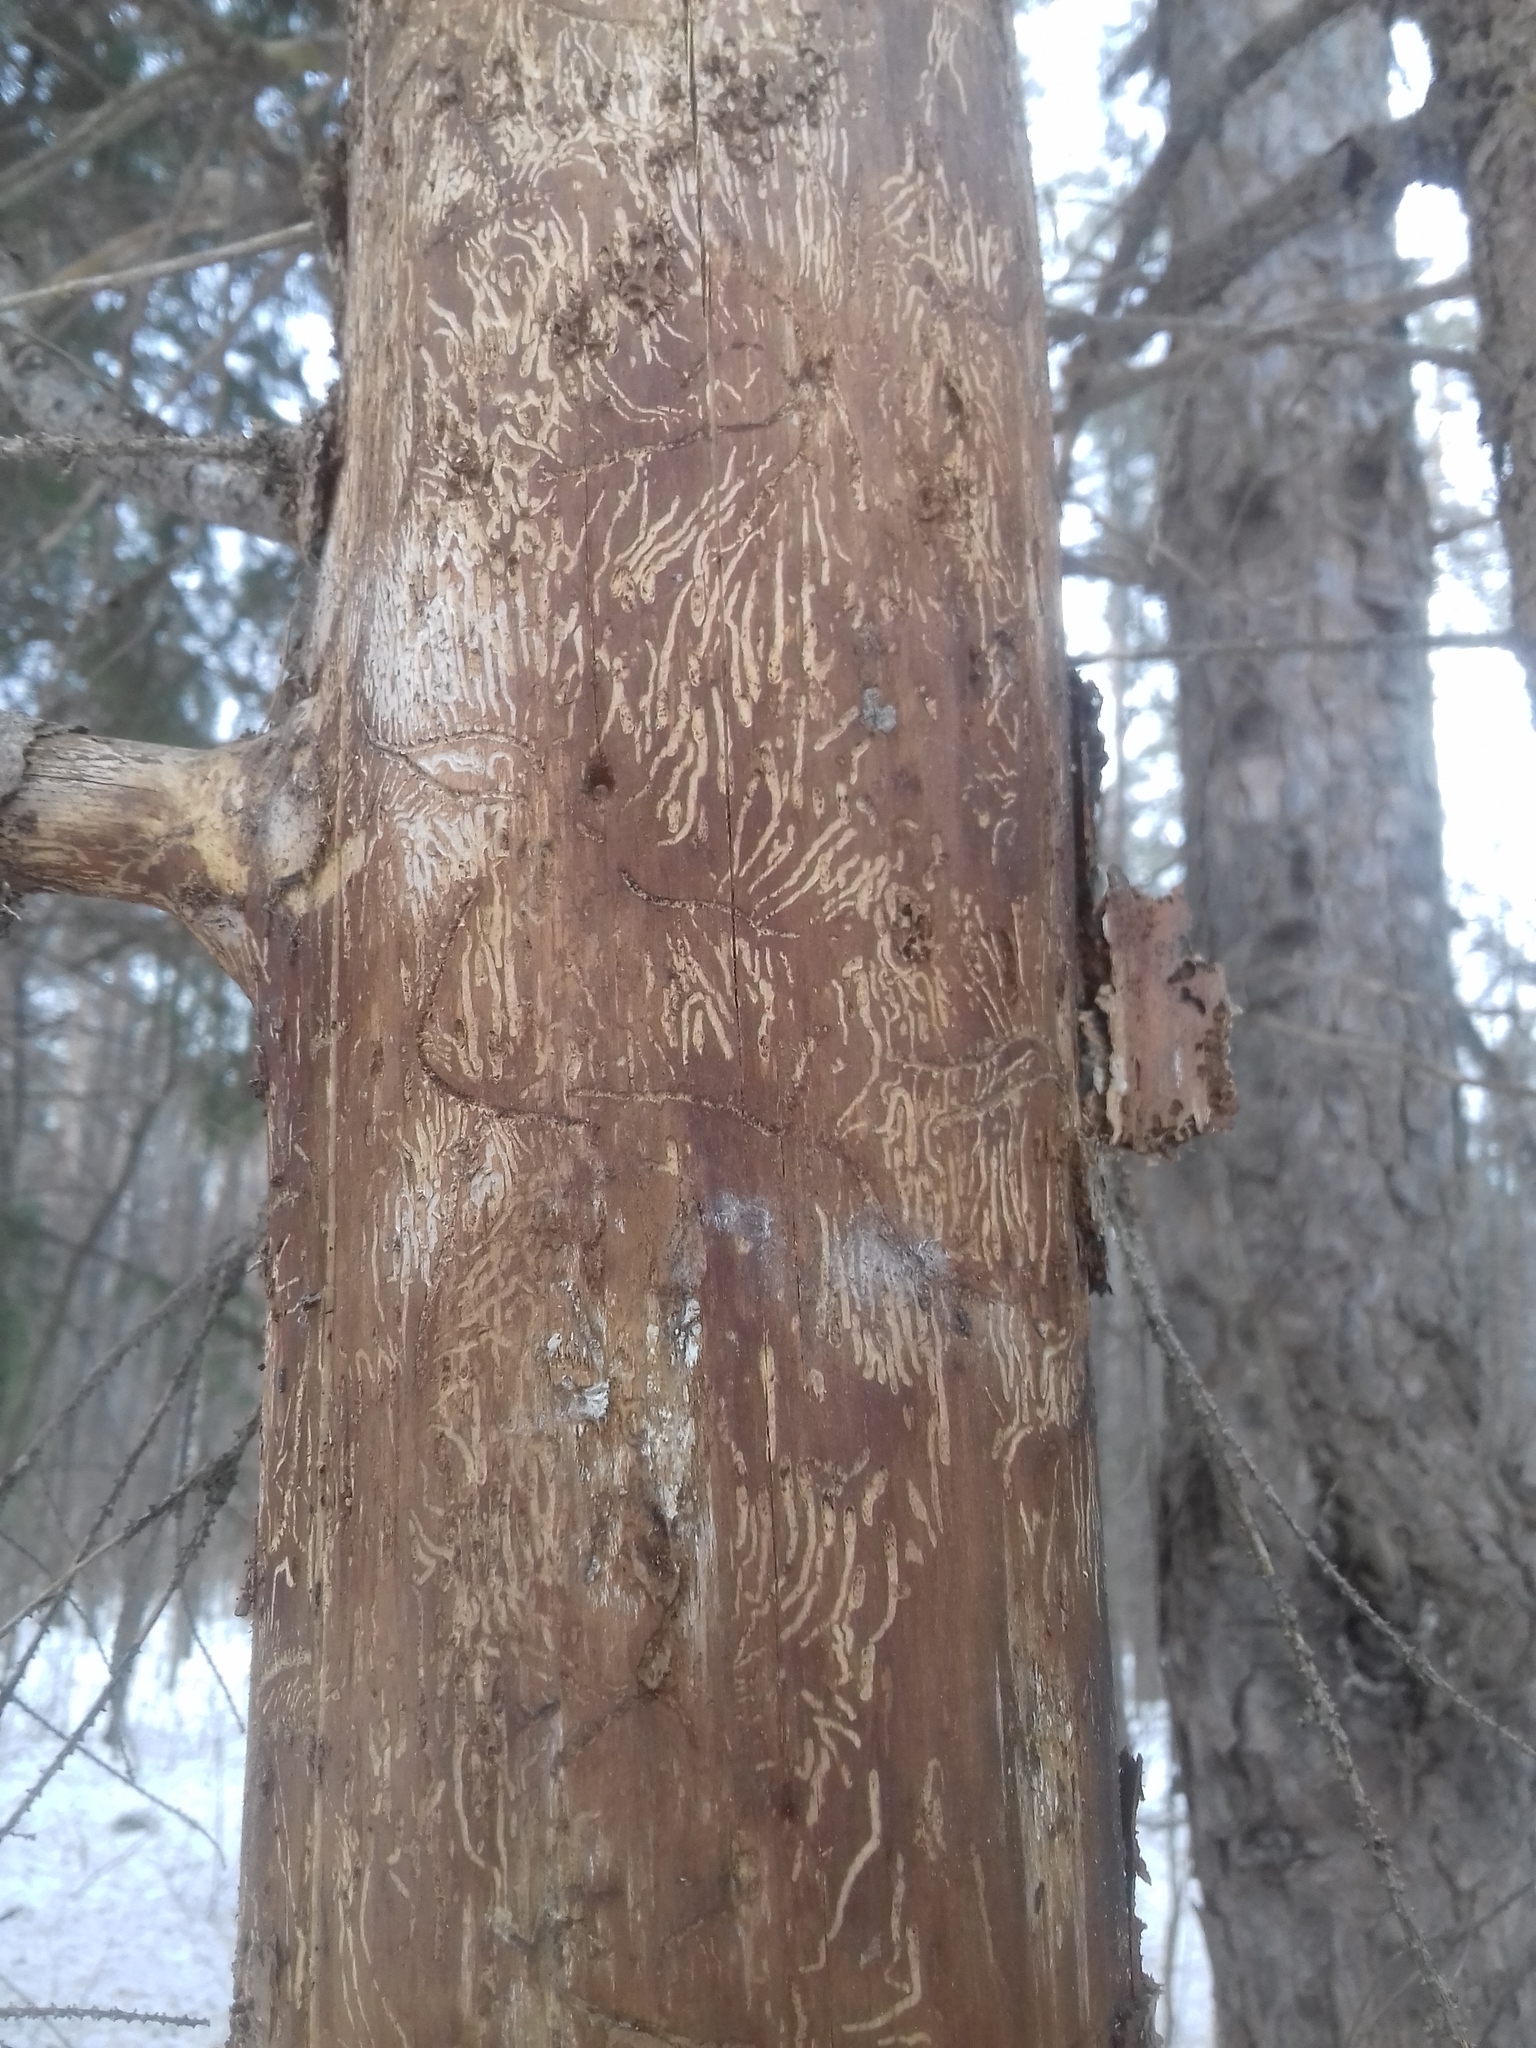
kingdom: Animalia
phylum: Arthropoda
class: Insecta
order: Coleoptera
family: Curculionidae
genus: Pityogenes
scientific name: Pityogenes chalcographus
